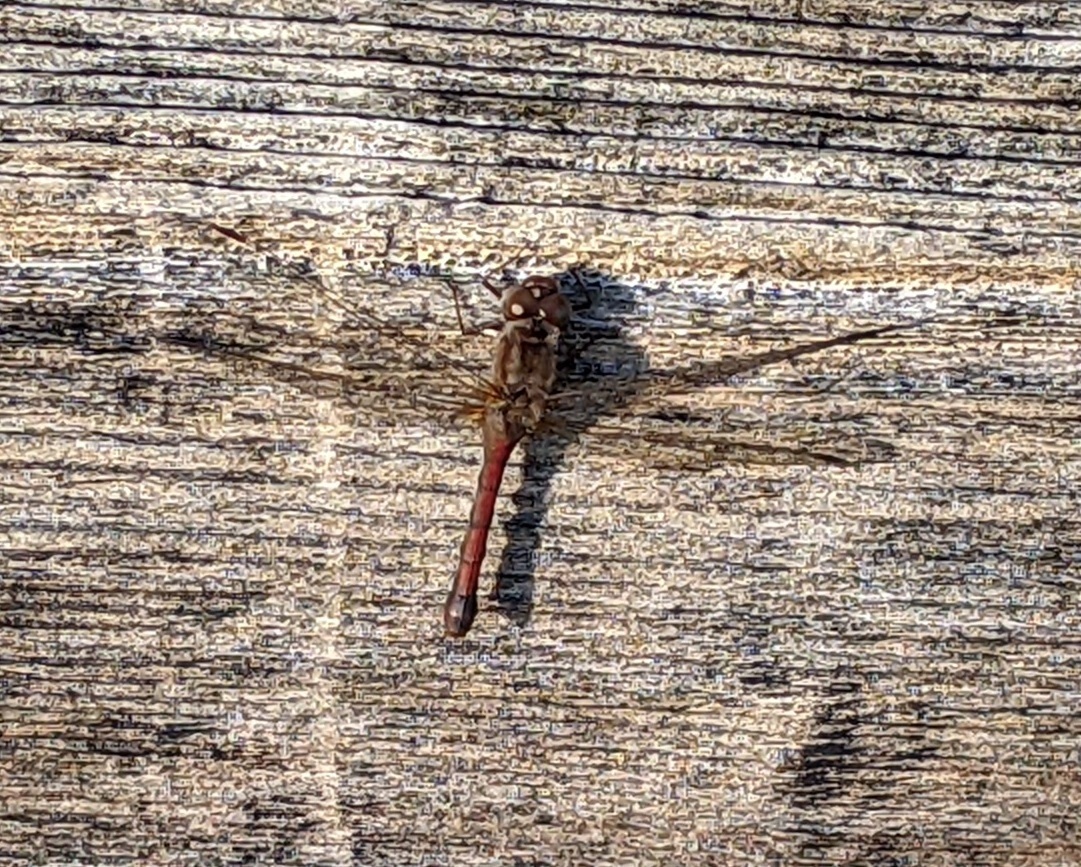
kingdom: Animalia
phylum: Arthropoda
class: Insecta
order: Odonata
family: Libellulidae
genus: Sympetrum
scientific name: Sympetrum vicinum
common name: Autumn meadowhawk
